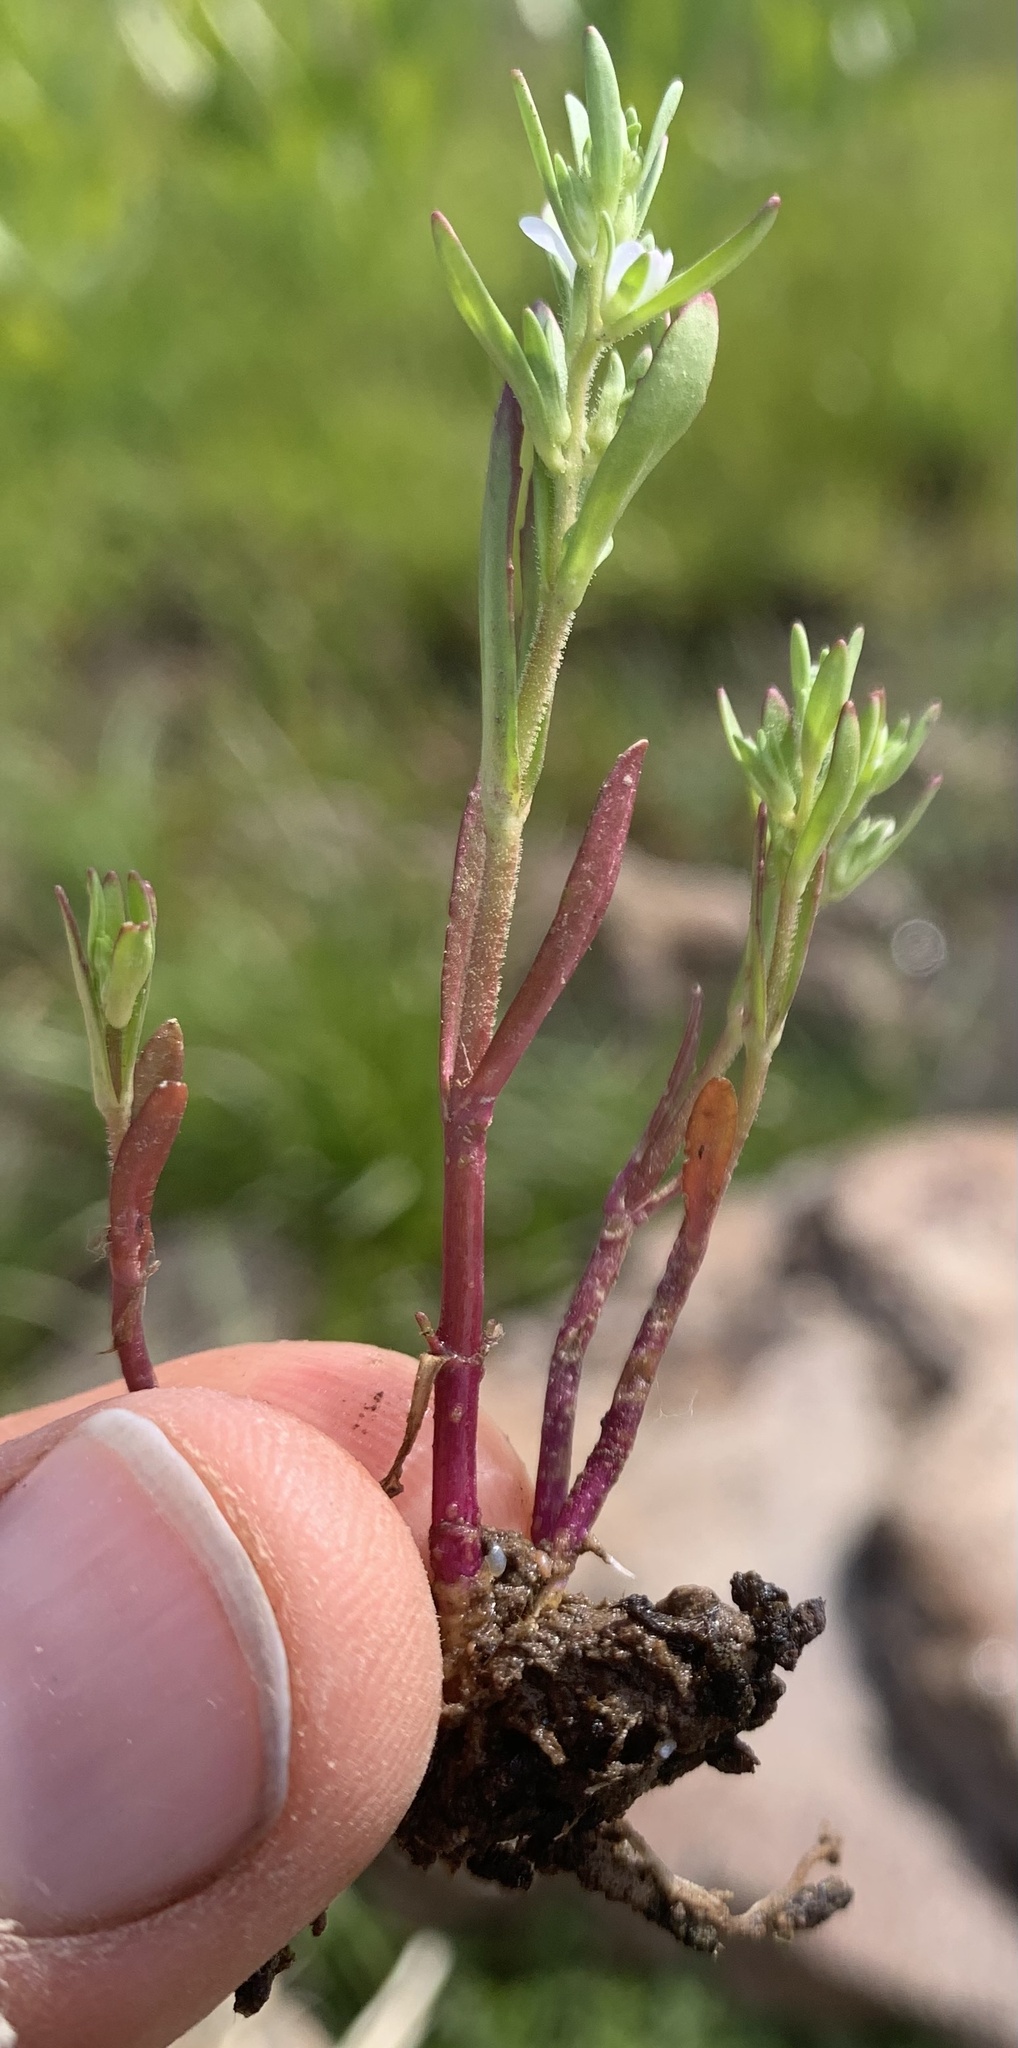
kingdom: Plantae
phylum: Tracheophyta
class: Magnoliopsida
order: Lamiales
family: Plantaginaceae
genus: Veronica
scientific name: Veronica peregrina
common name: Neckweed
